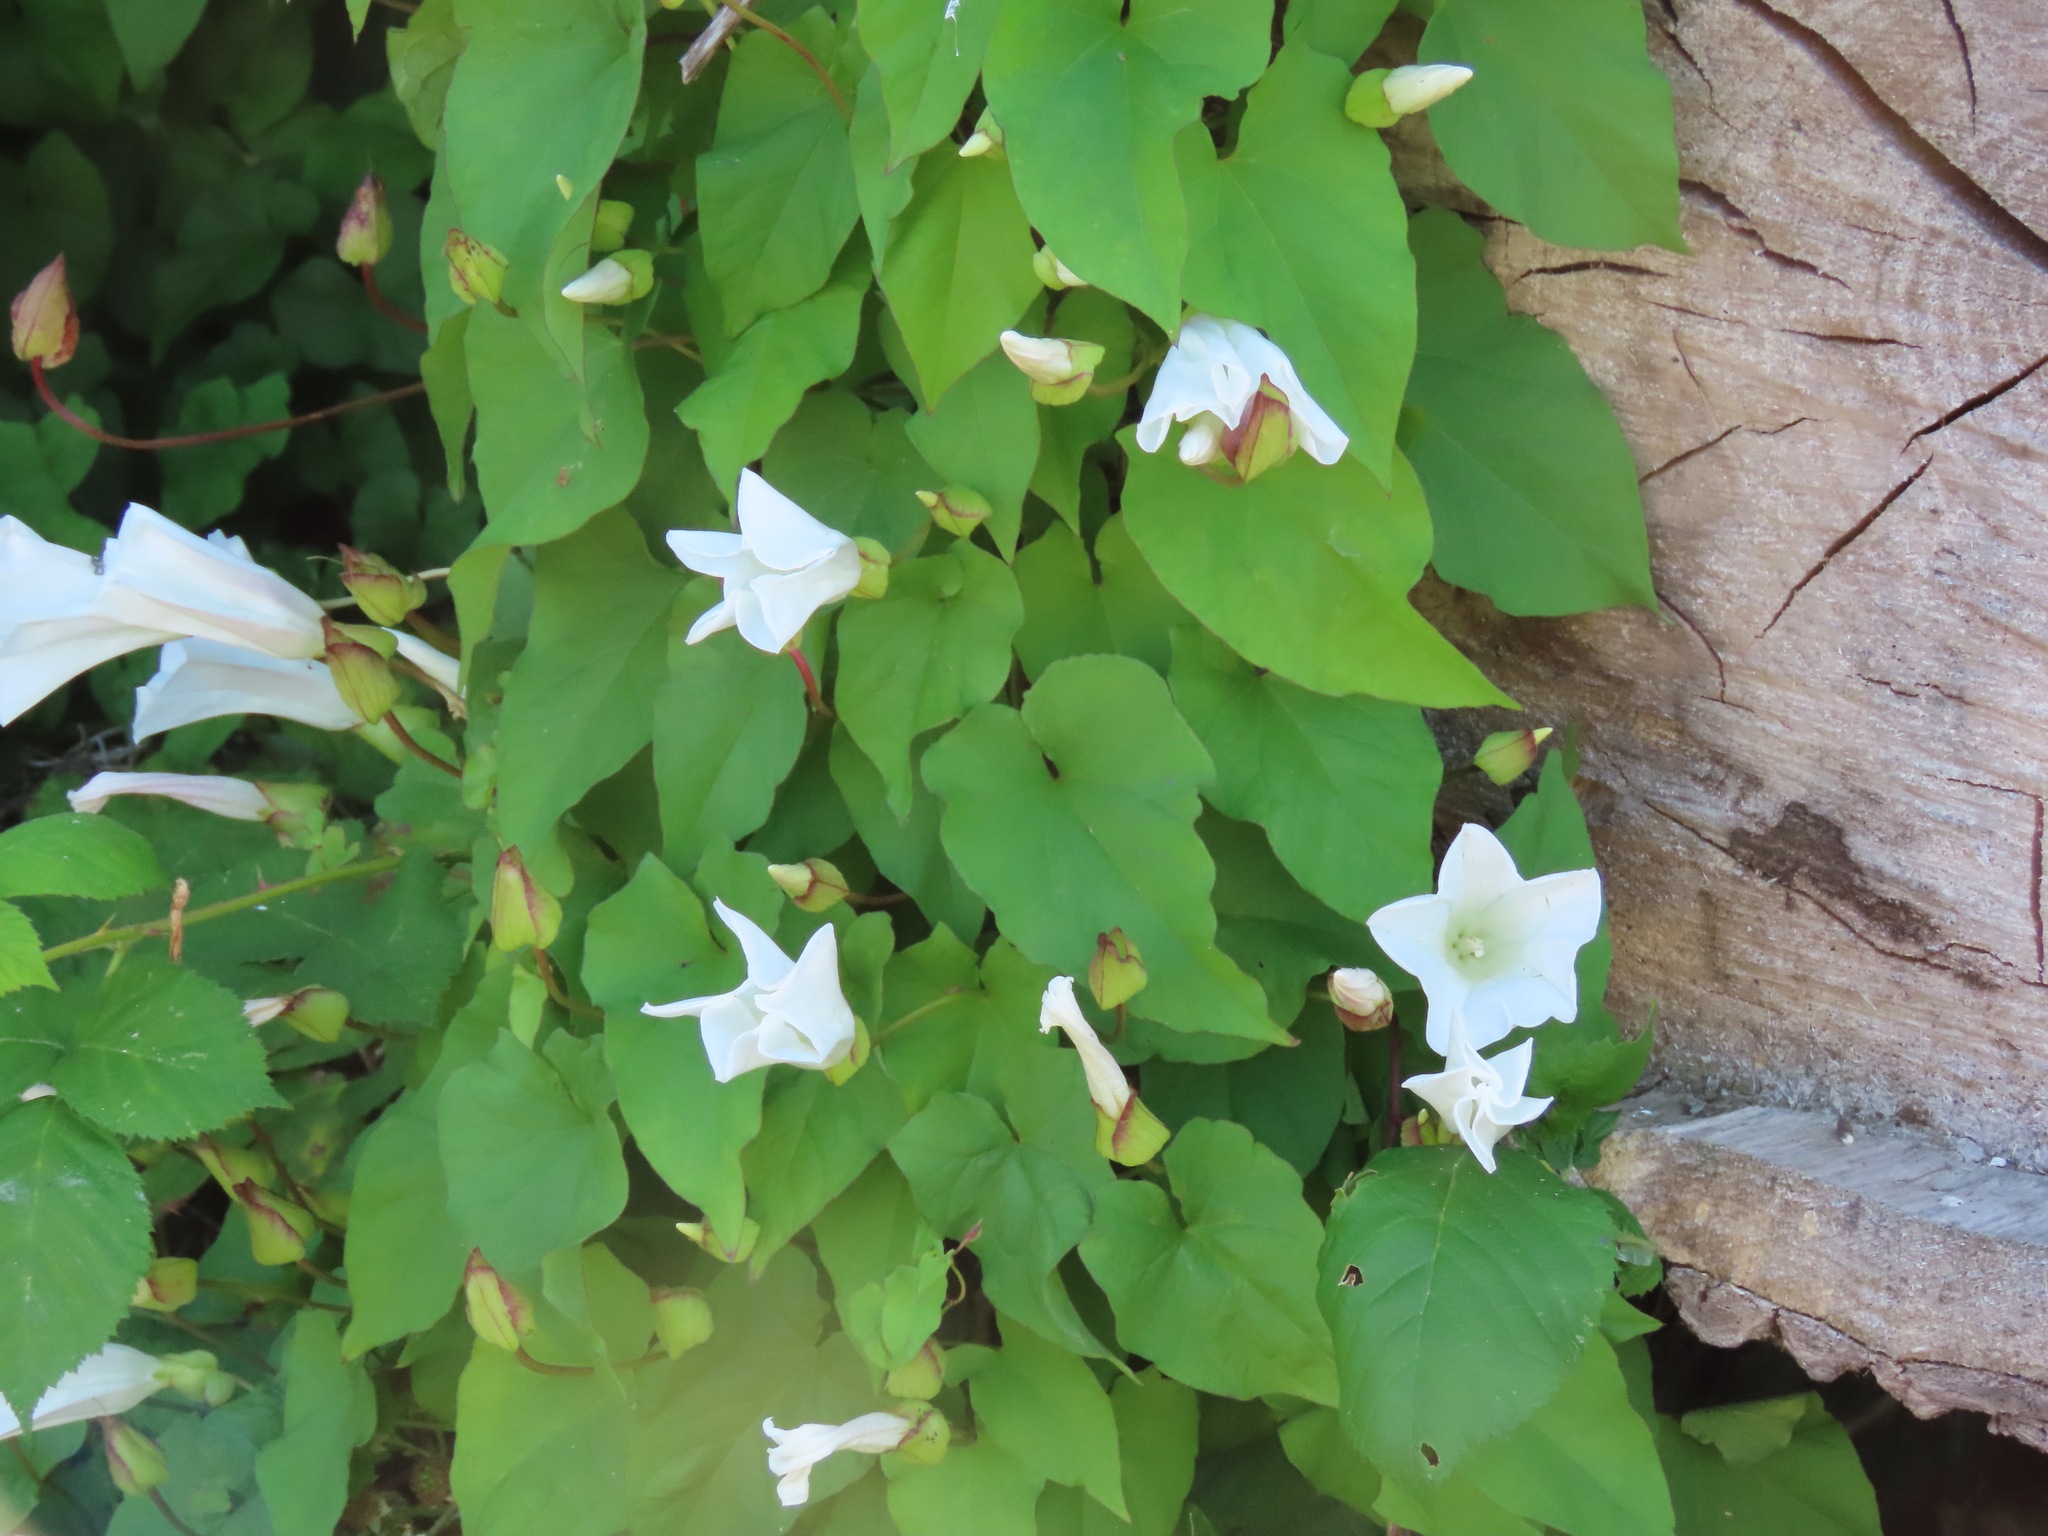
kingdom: Plantae
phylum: Tracheophyta
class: Magnoliopsida
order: Solanales
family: Convolvulaceae
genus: Calystegia
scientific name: Calystegia silvatica
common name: Large bindweed
